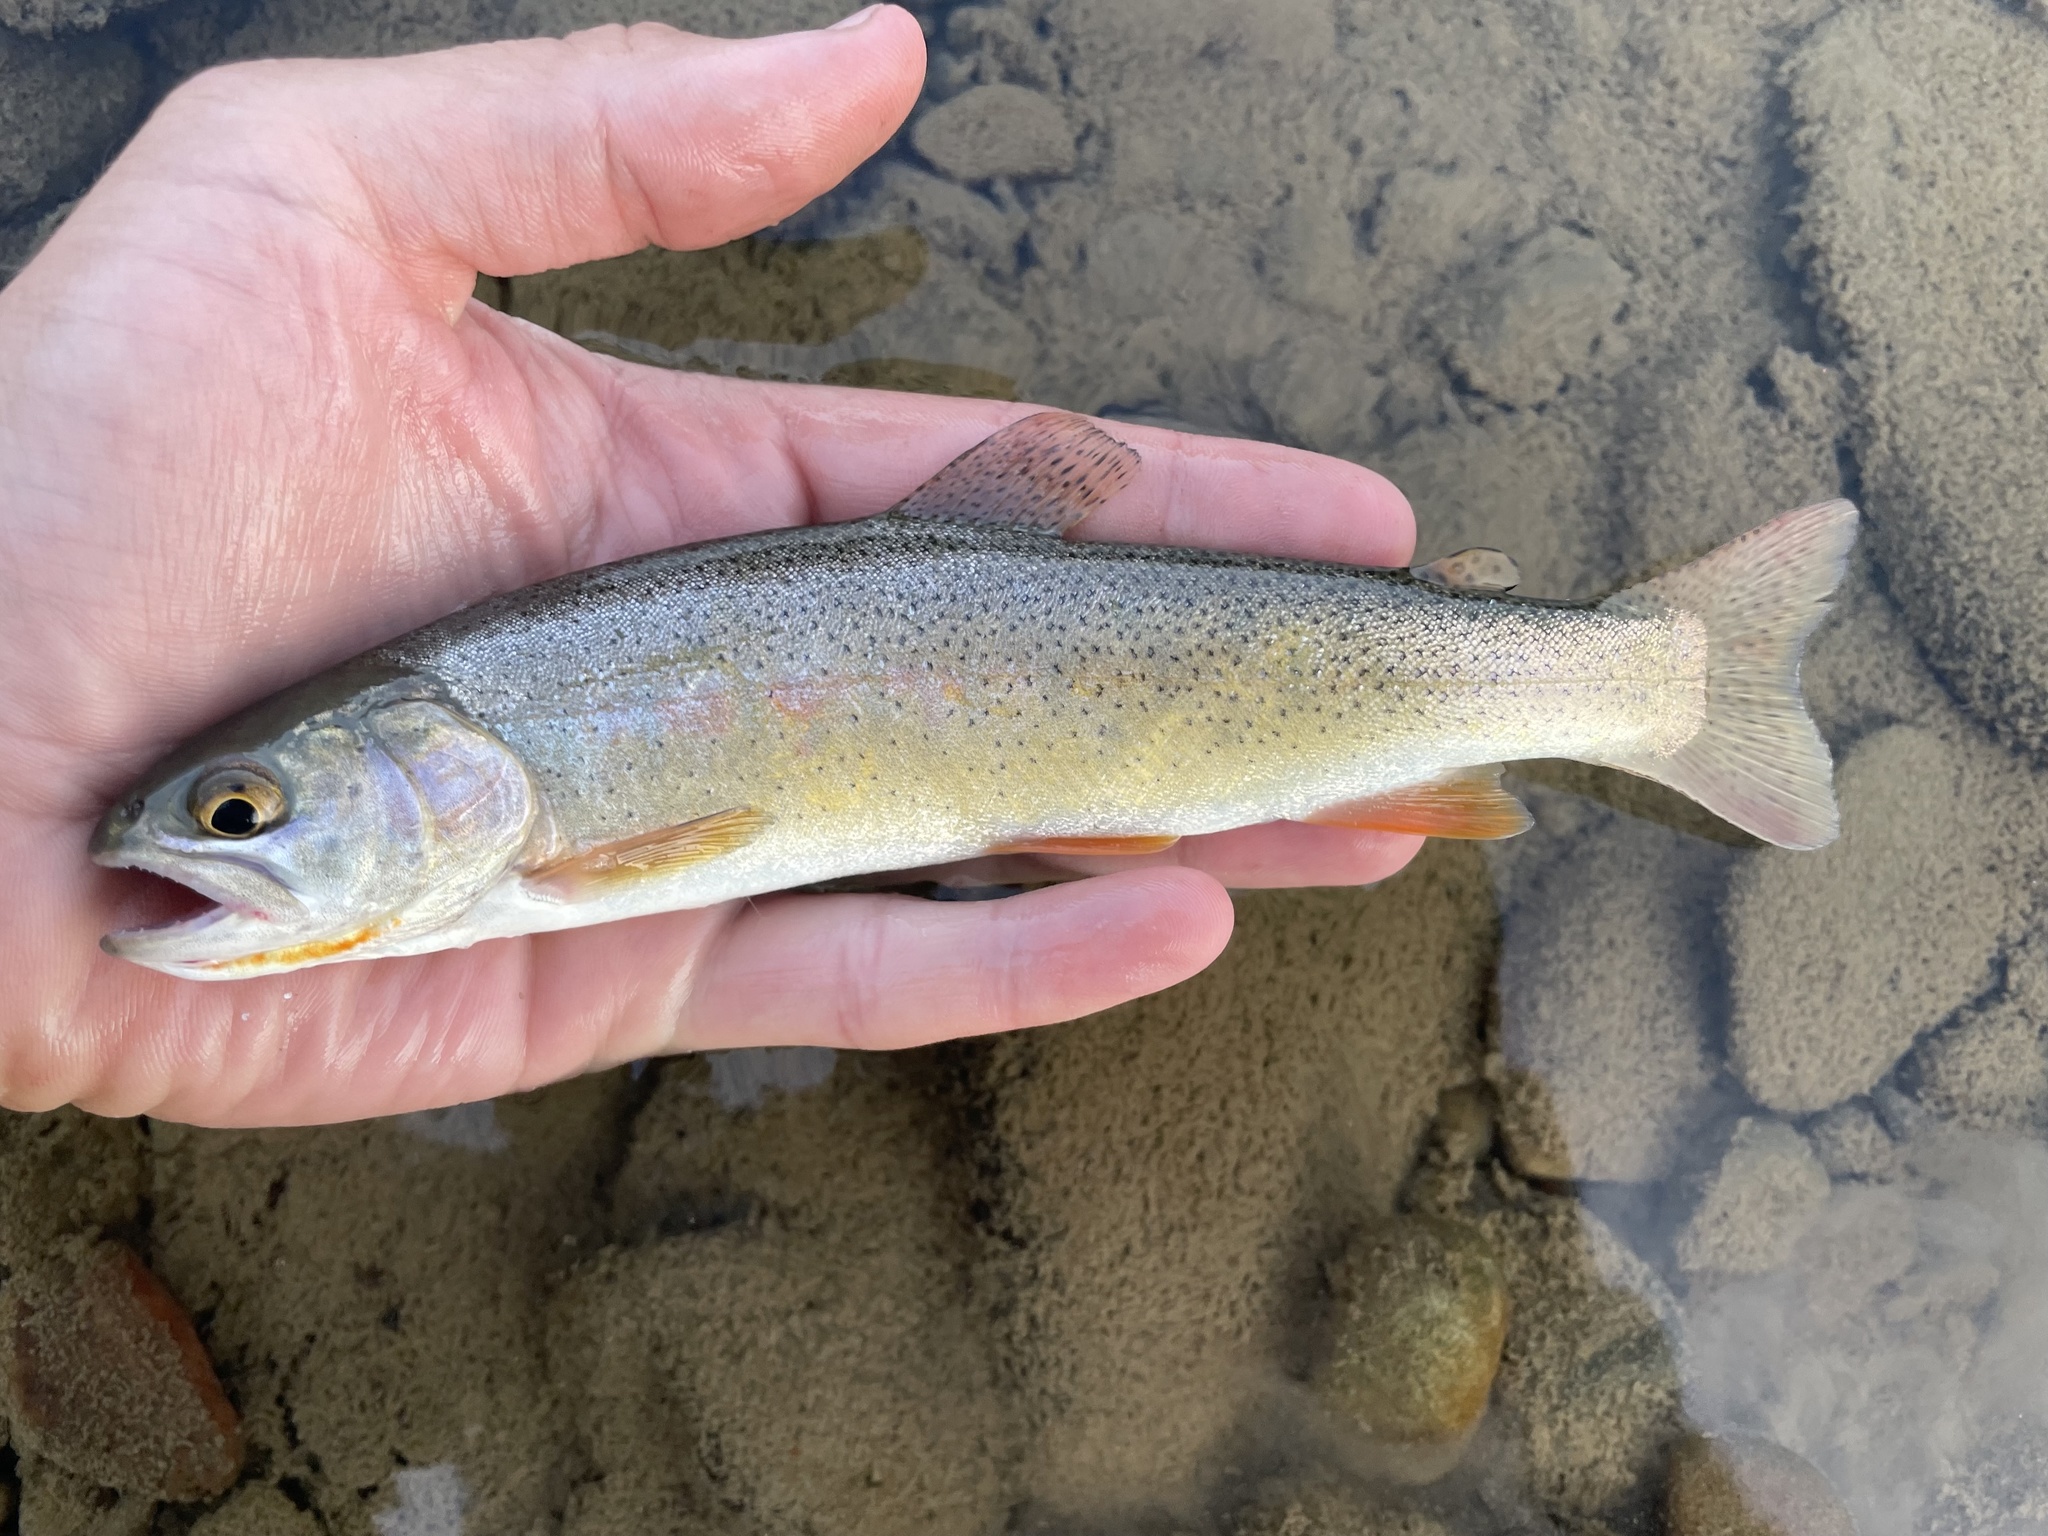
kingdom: Animalia
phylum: Chordata
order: Salmoniformes
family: Salmonidae
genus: Oncorhynchus
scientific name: Oncorhynchus virginalis
